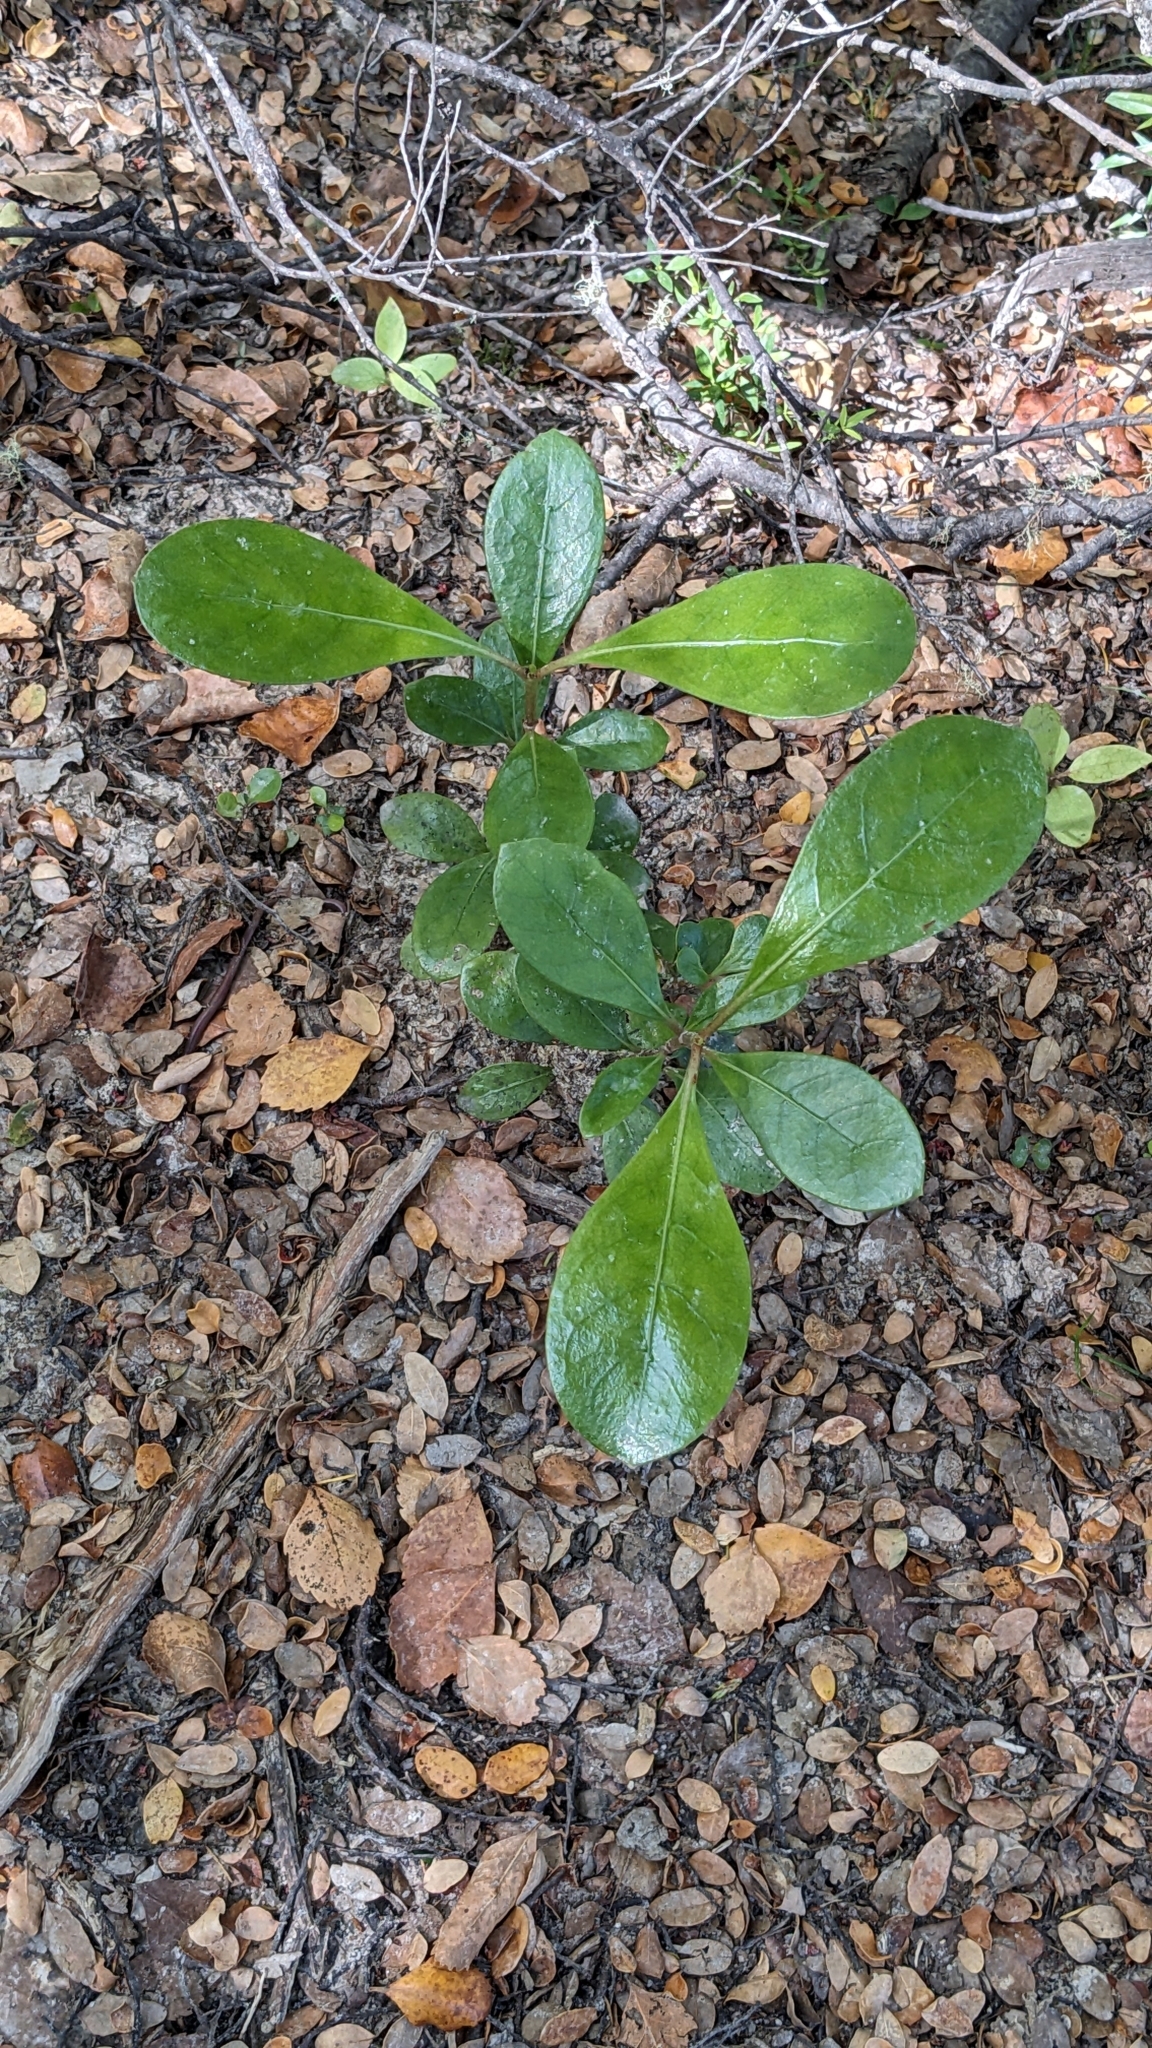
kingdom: Plantae
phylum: Tracheophyta
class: Magnoliopsida
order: Gentianales
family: Rubiaceae
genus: Coprosma
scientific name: Coprosma lucida
